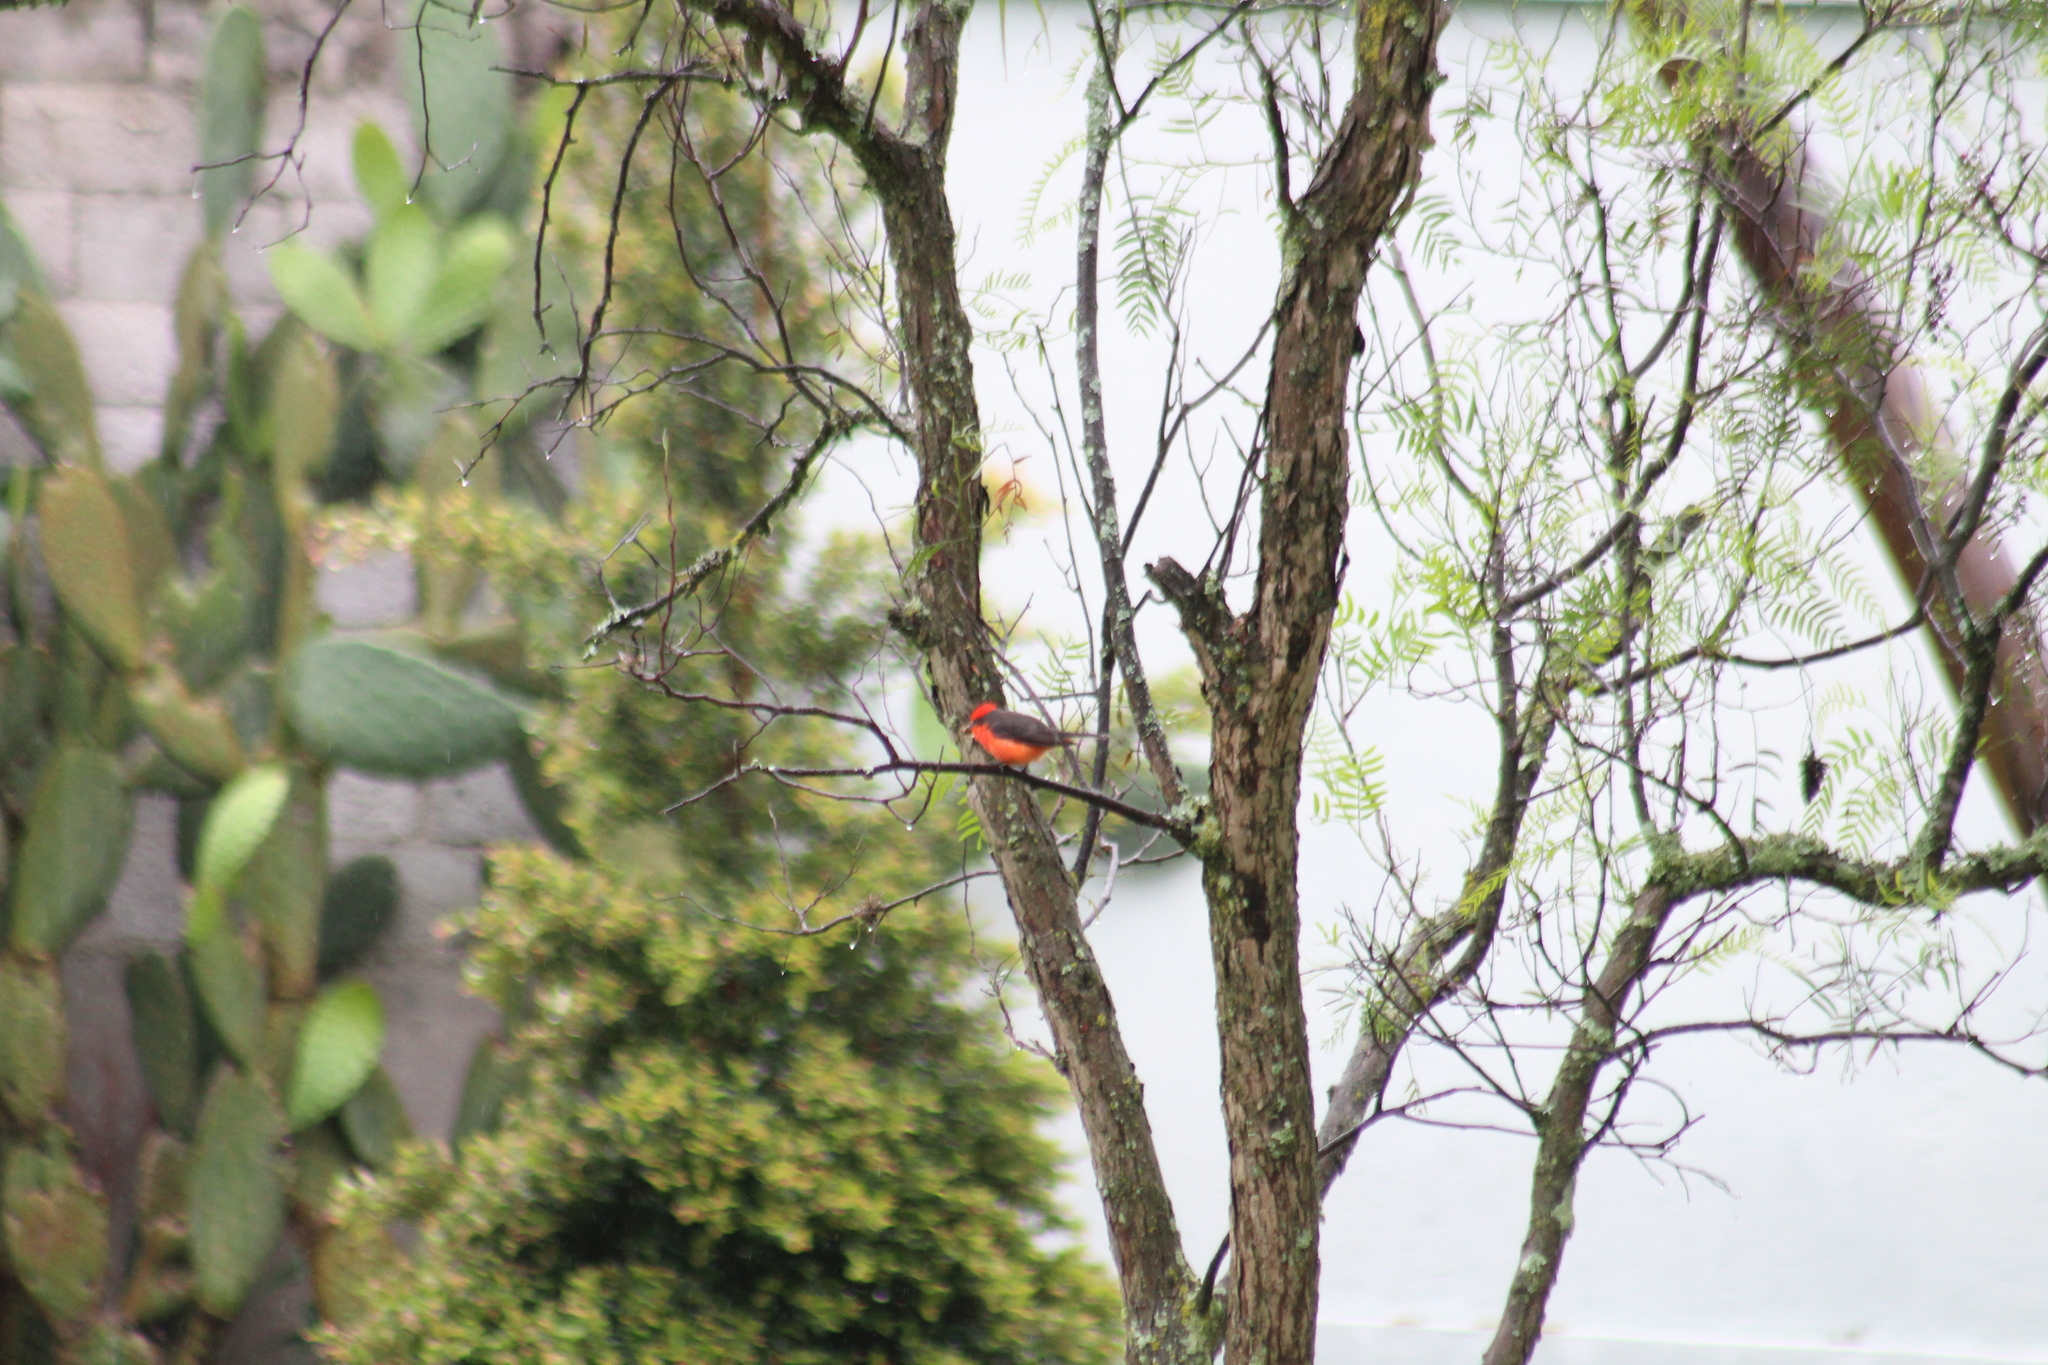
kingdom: Animalia
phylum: Chordata
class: Aves
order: Passeriformes
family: Tyrannidae
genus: Pyrocephalus
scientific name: Pyrocephalus rubinus
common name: Vermilion flycatcher
